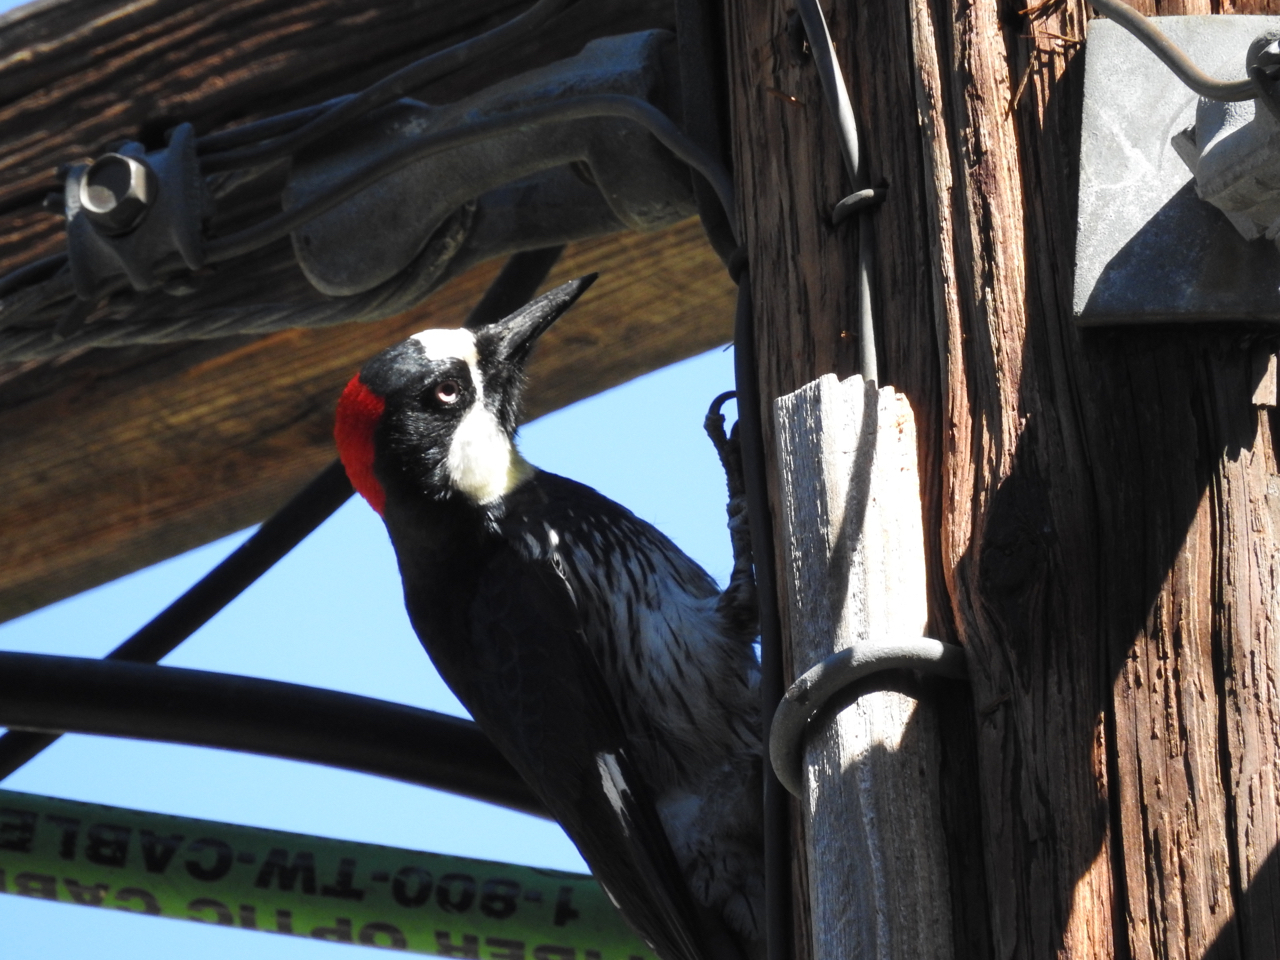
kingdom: Animalia
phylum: Chordata
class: Aves
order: Piciformes
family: Picidae
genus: Melanerpes
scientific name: Melanerpes formicivorus
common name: Acorn woodpecker
